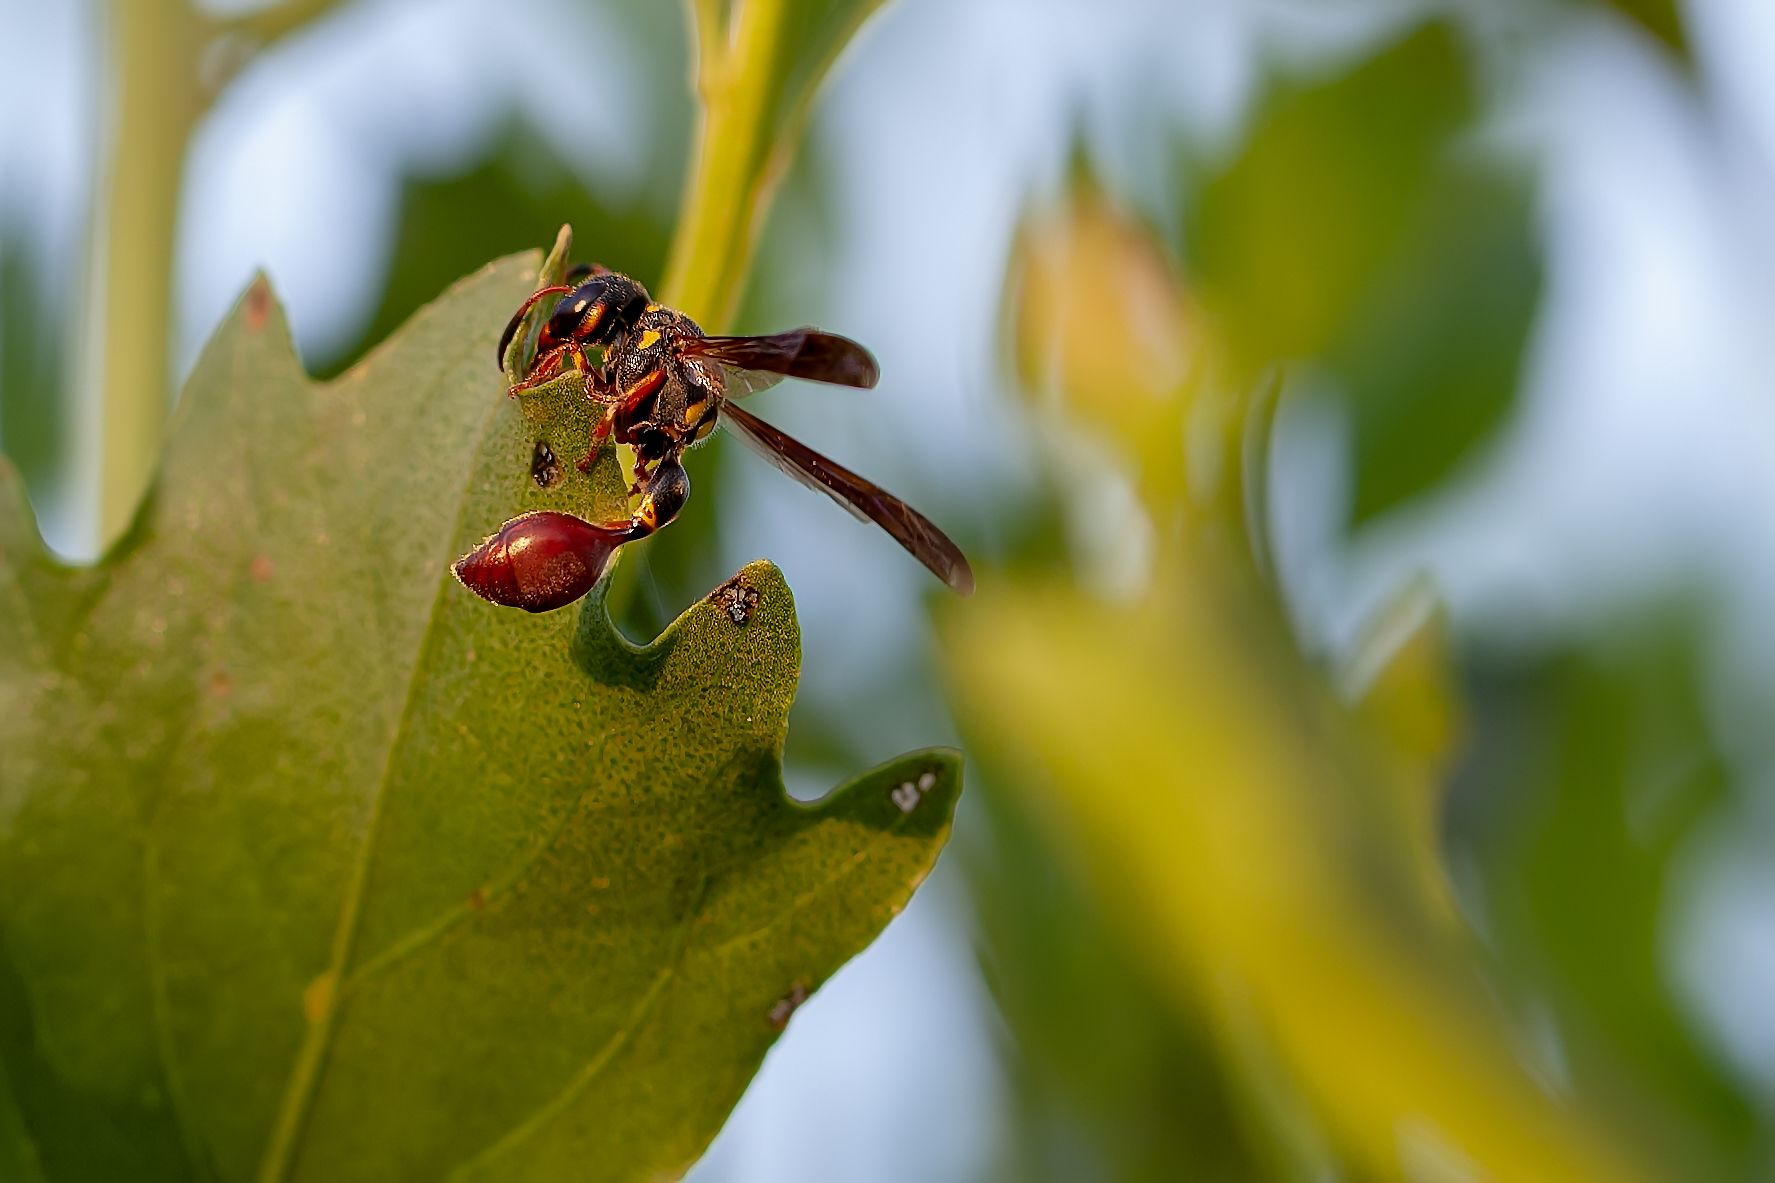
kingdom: Animalia
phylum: Arthropoda
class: Insecta
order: Hymenoptera
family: Eumenidae
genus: Zethus
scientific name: Zethus slossonae
